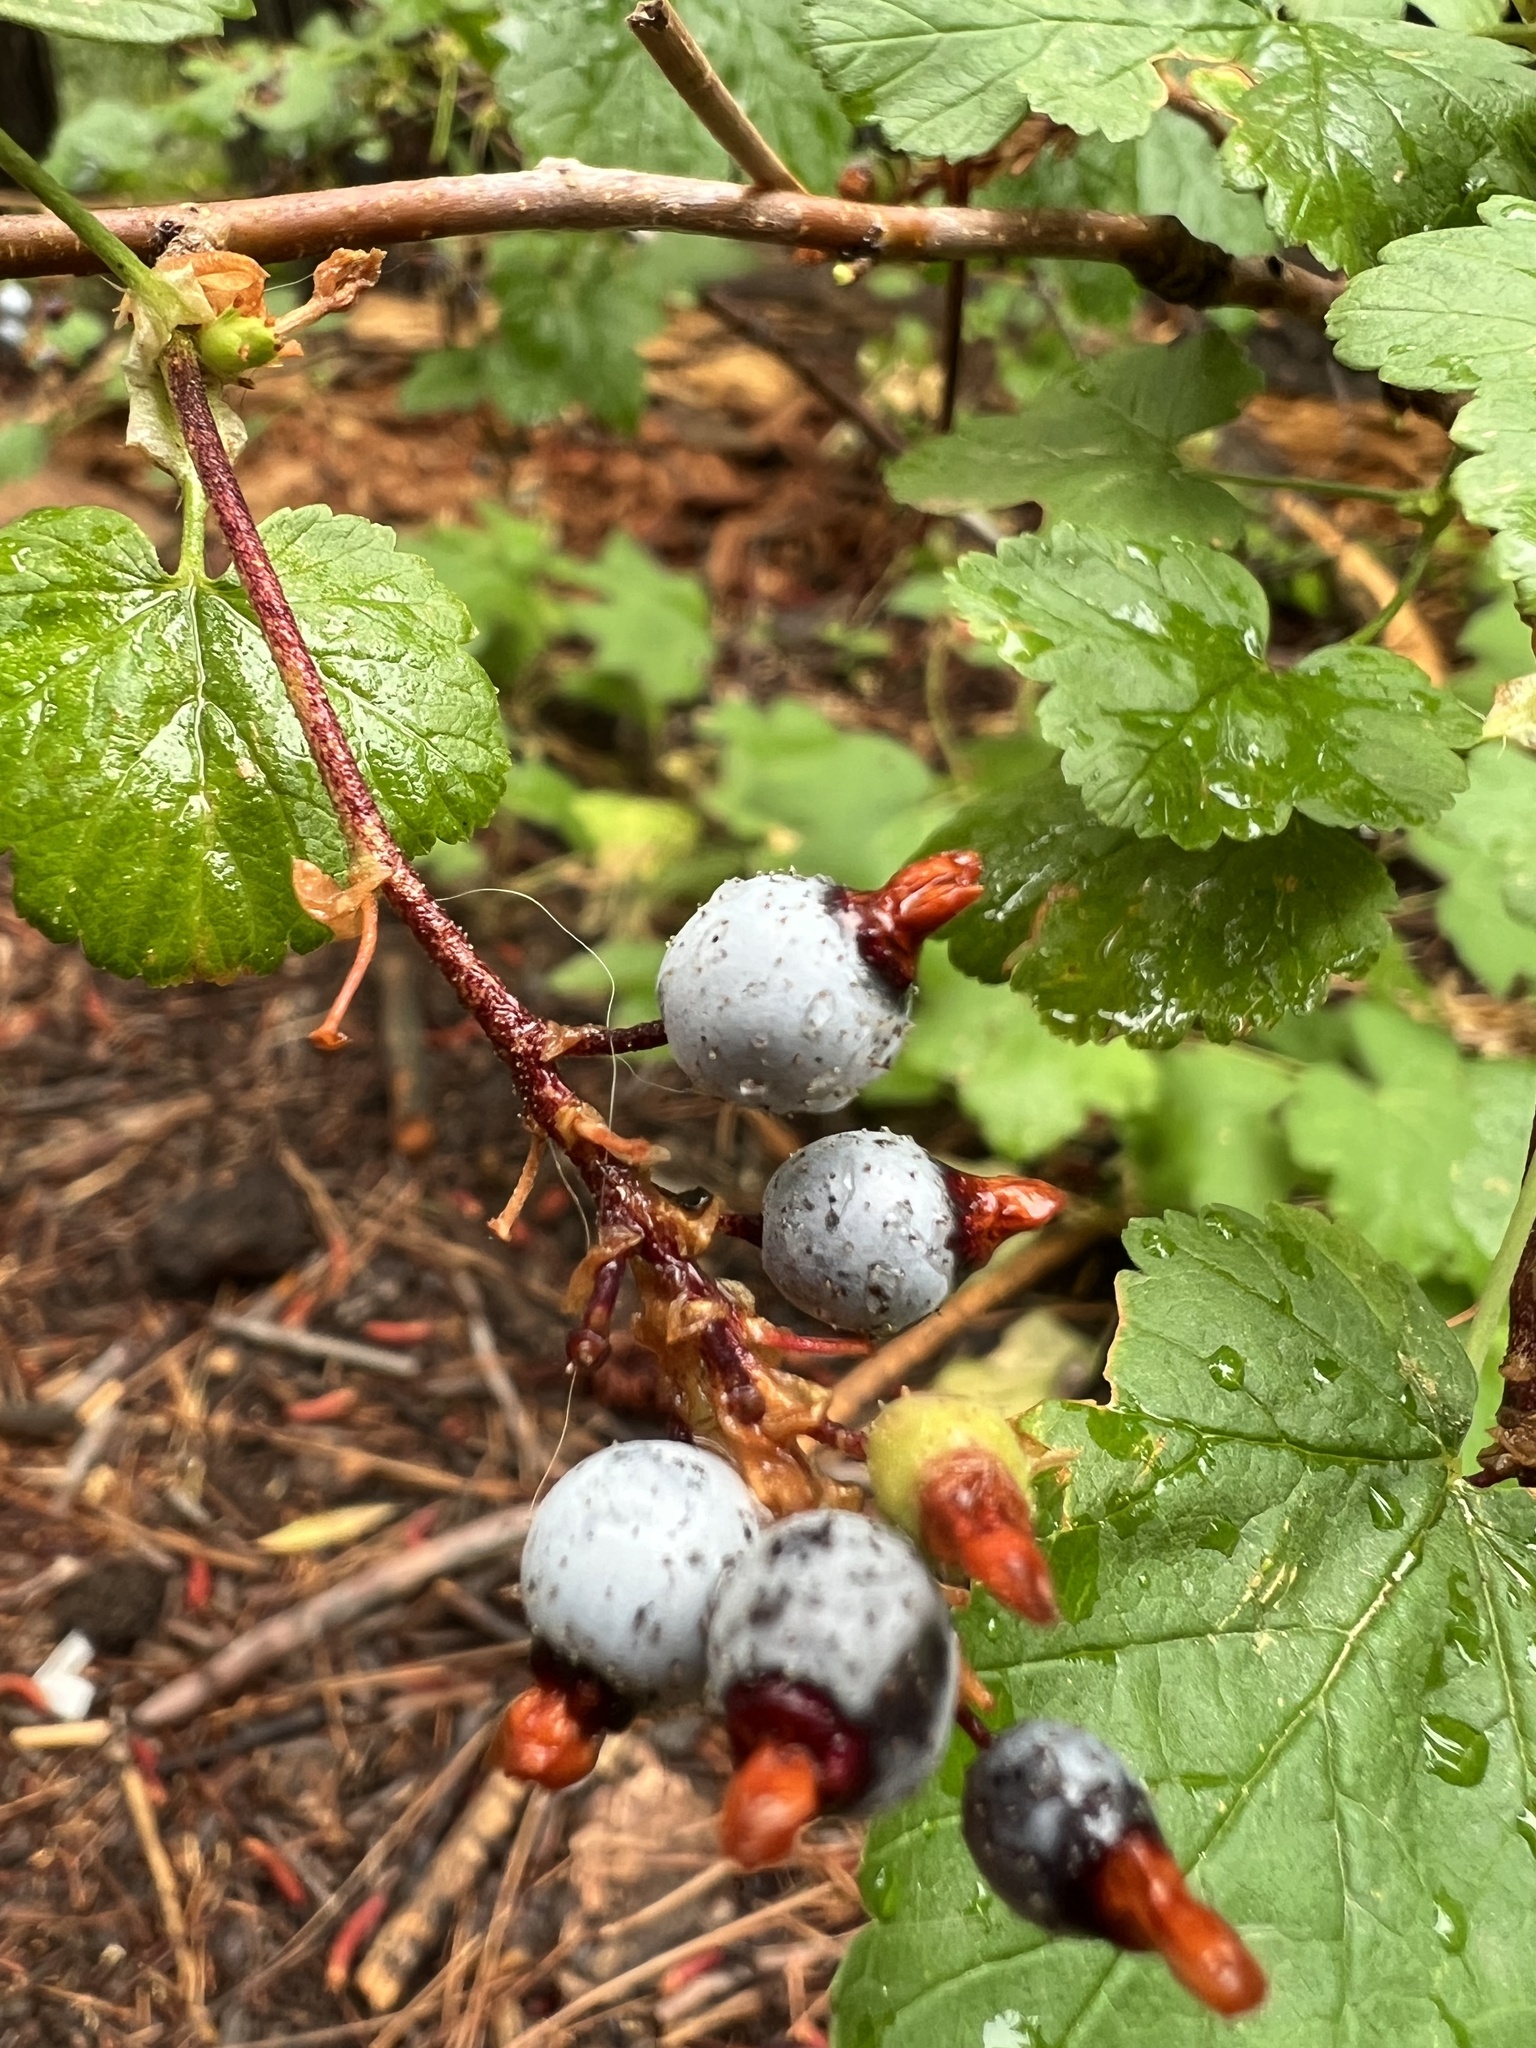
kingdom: Plantae
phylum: Tracheophyta
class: Magnoliopsida
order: Saxifragales
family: Grossulariaceae
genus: Ribes
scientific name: Ribes nevadense
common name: Mountain pink currant
